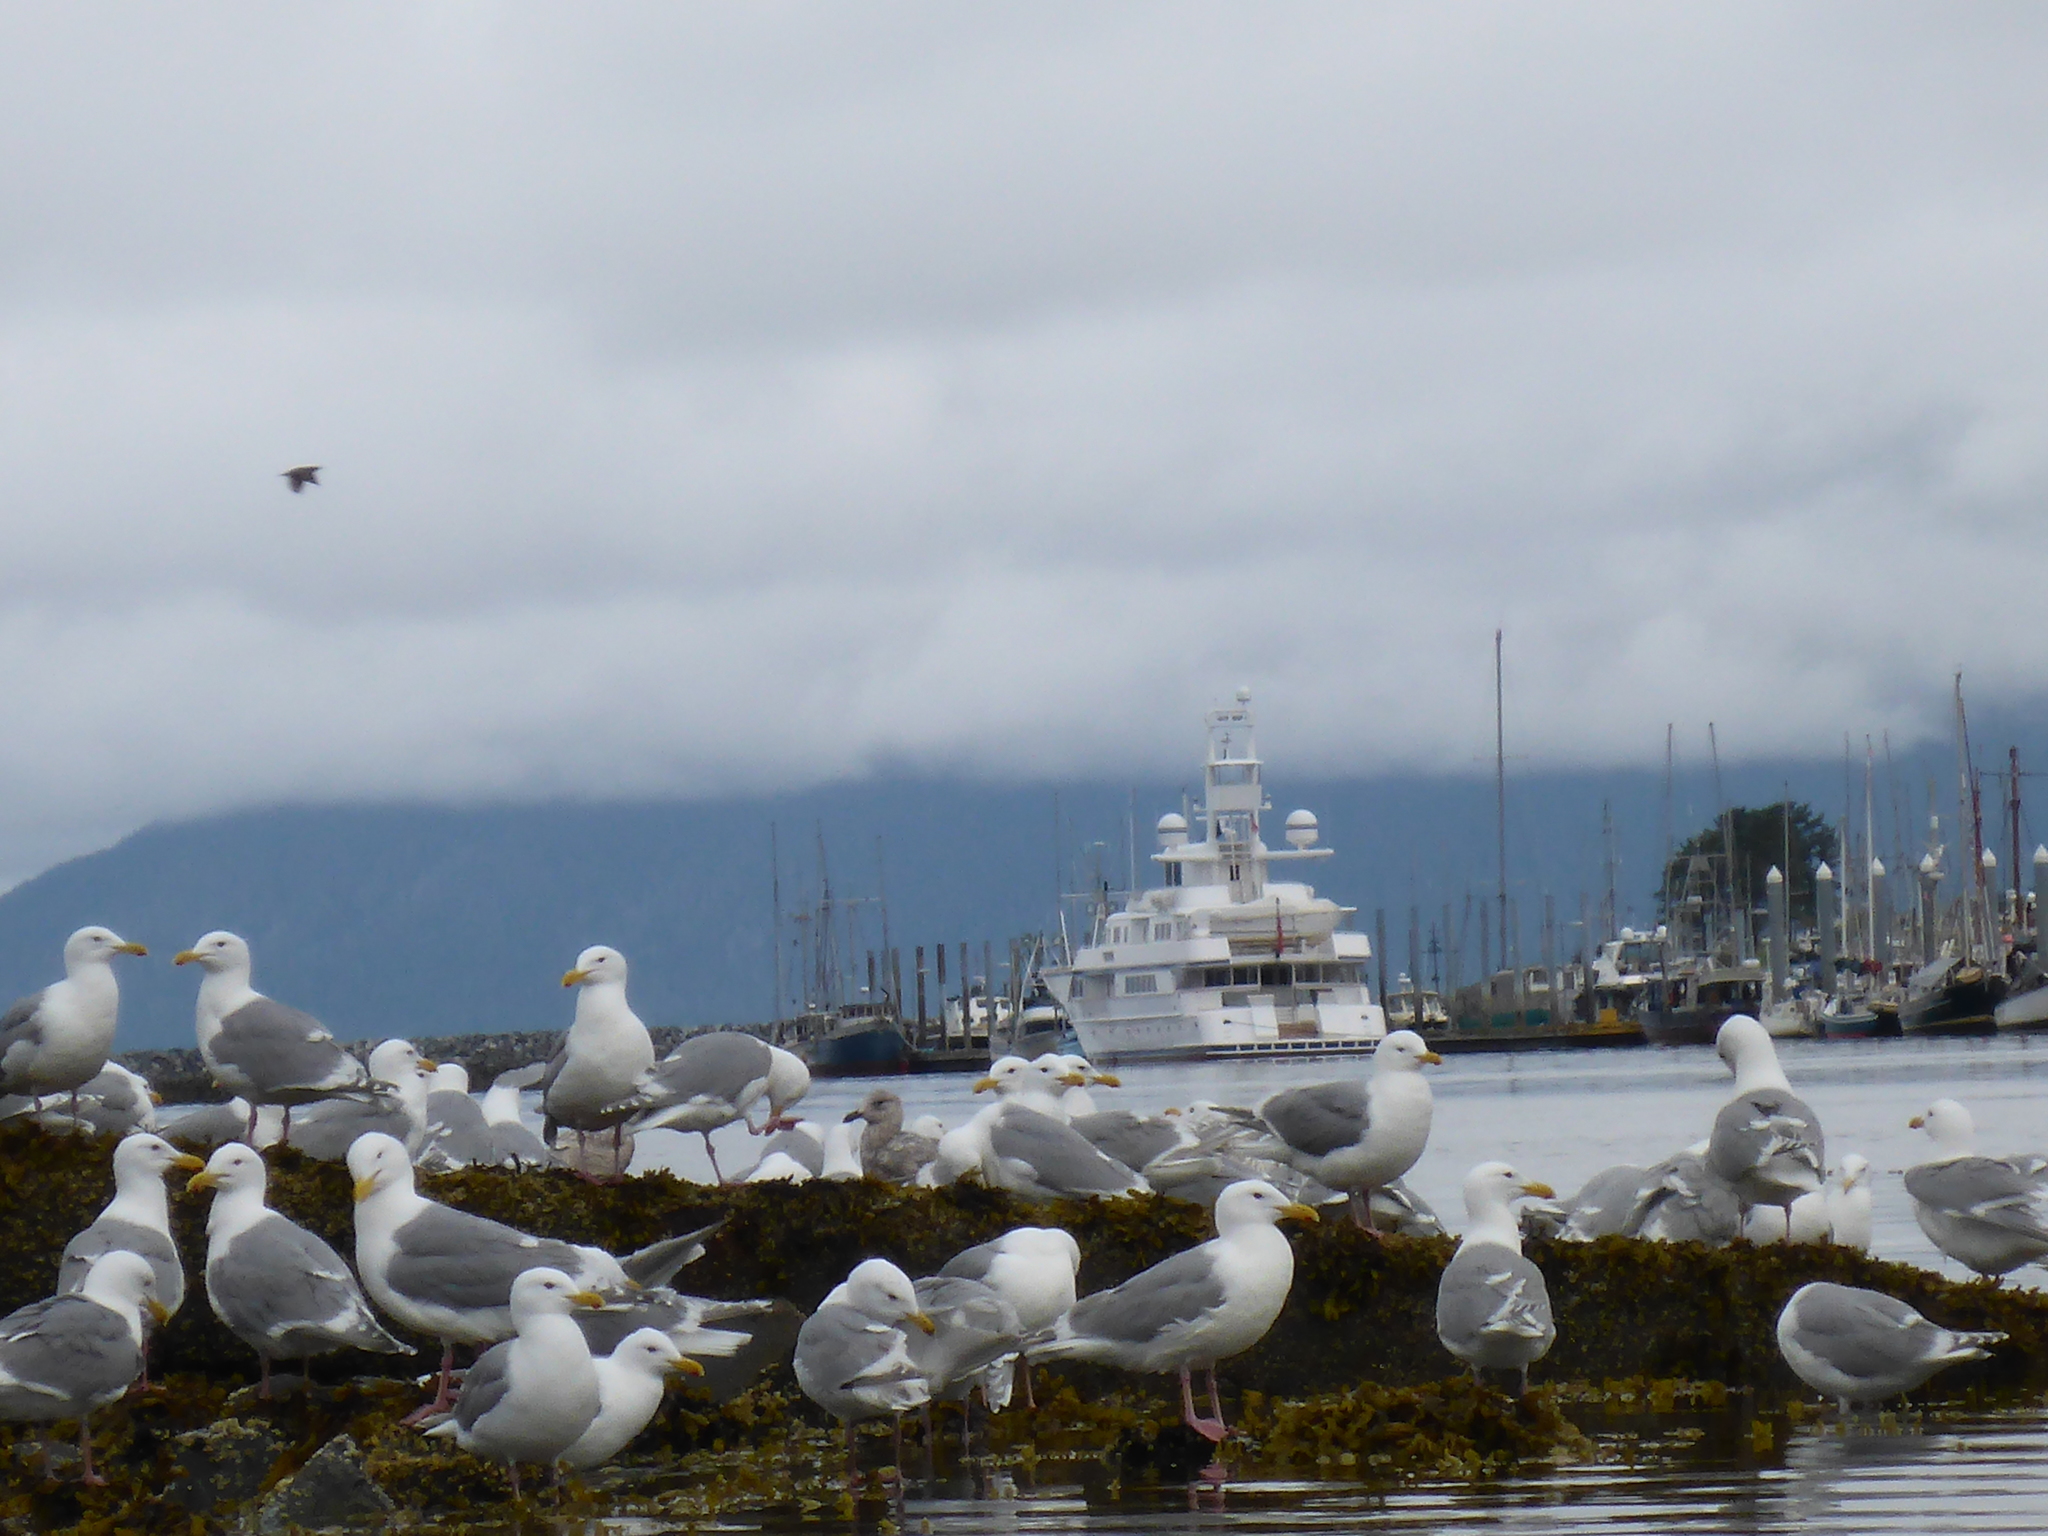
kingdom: Animalia
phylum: Chordata
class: Aves
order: Charadriiformes
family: Laridae
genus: Larus
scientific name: Larus glaucescens
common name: Glaucous-winged gull
